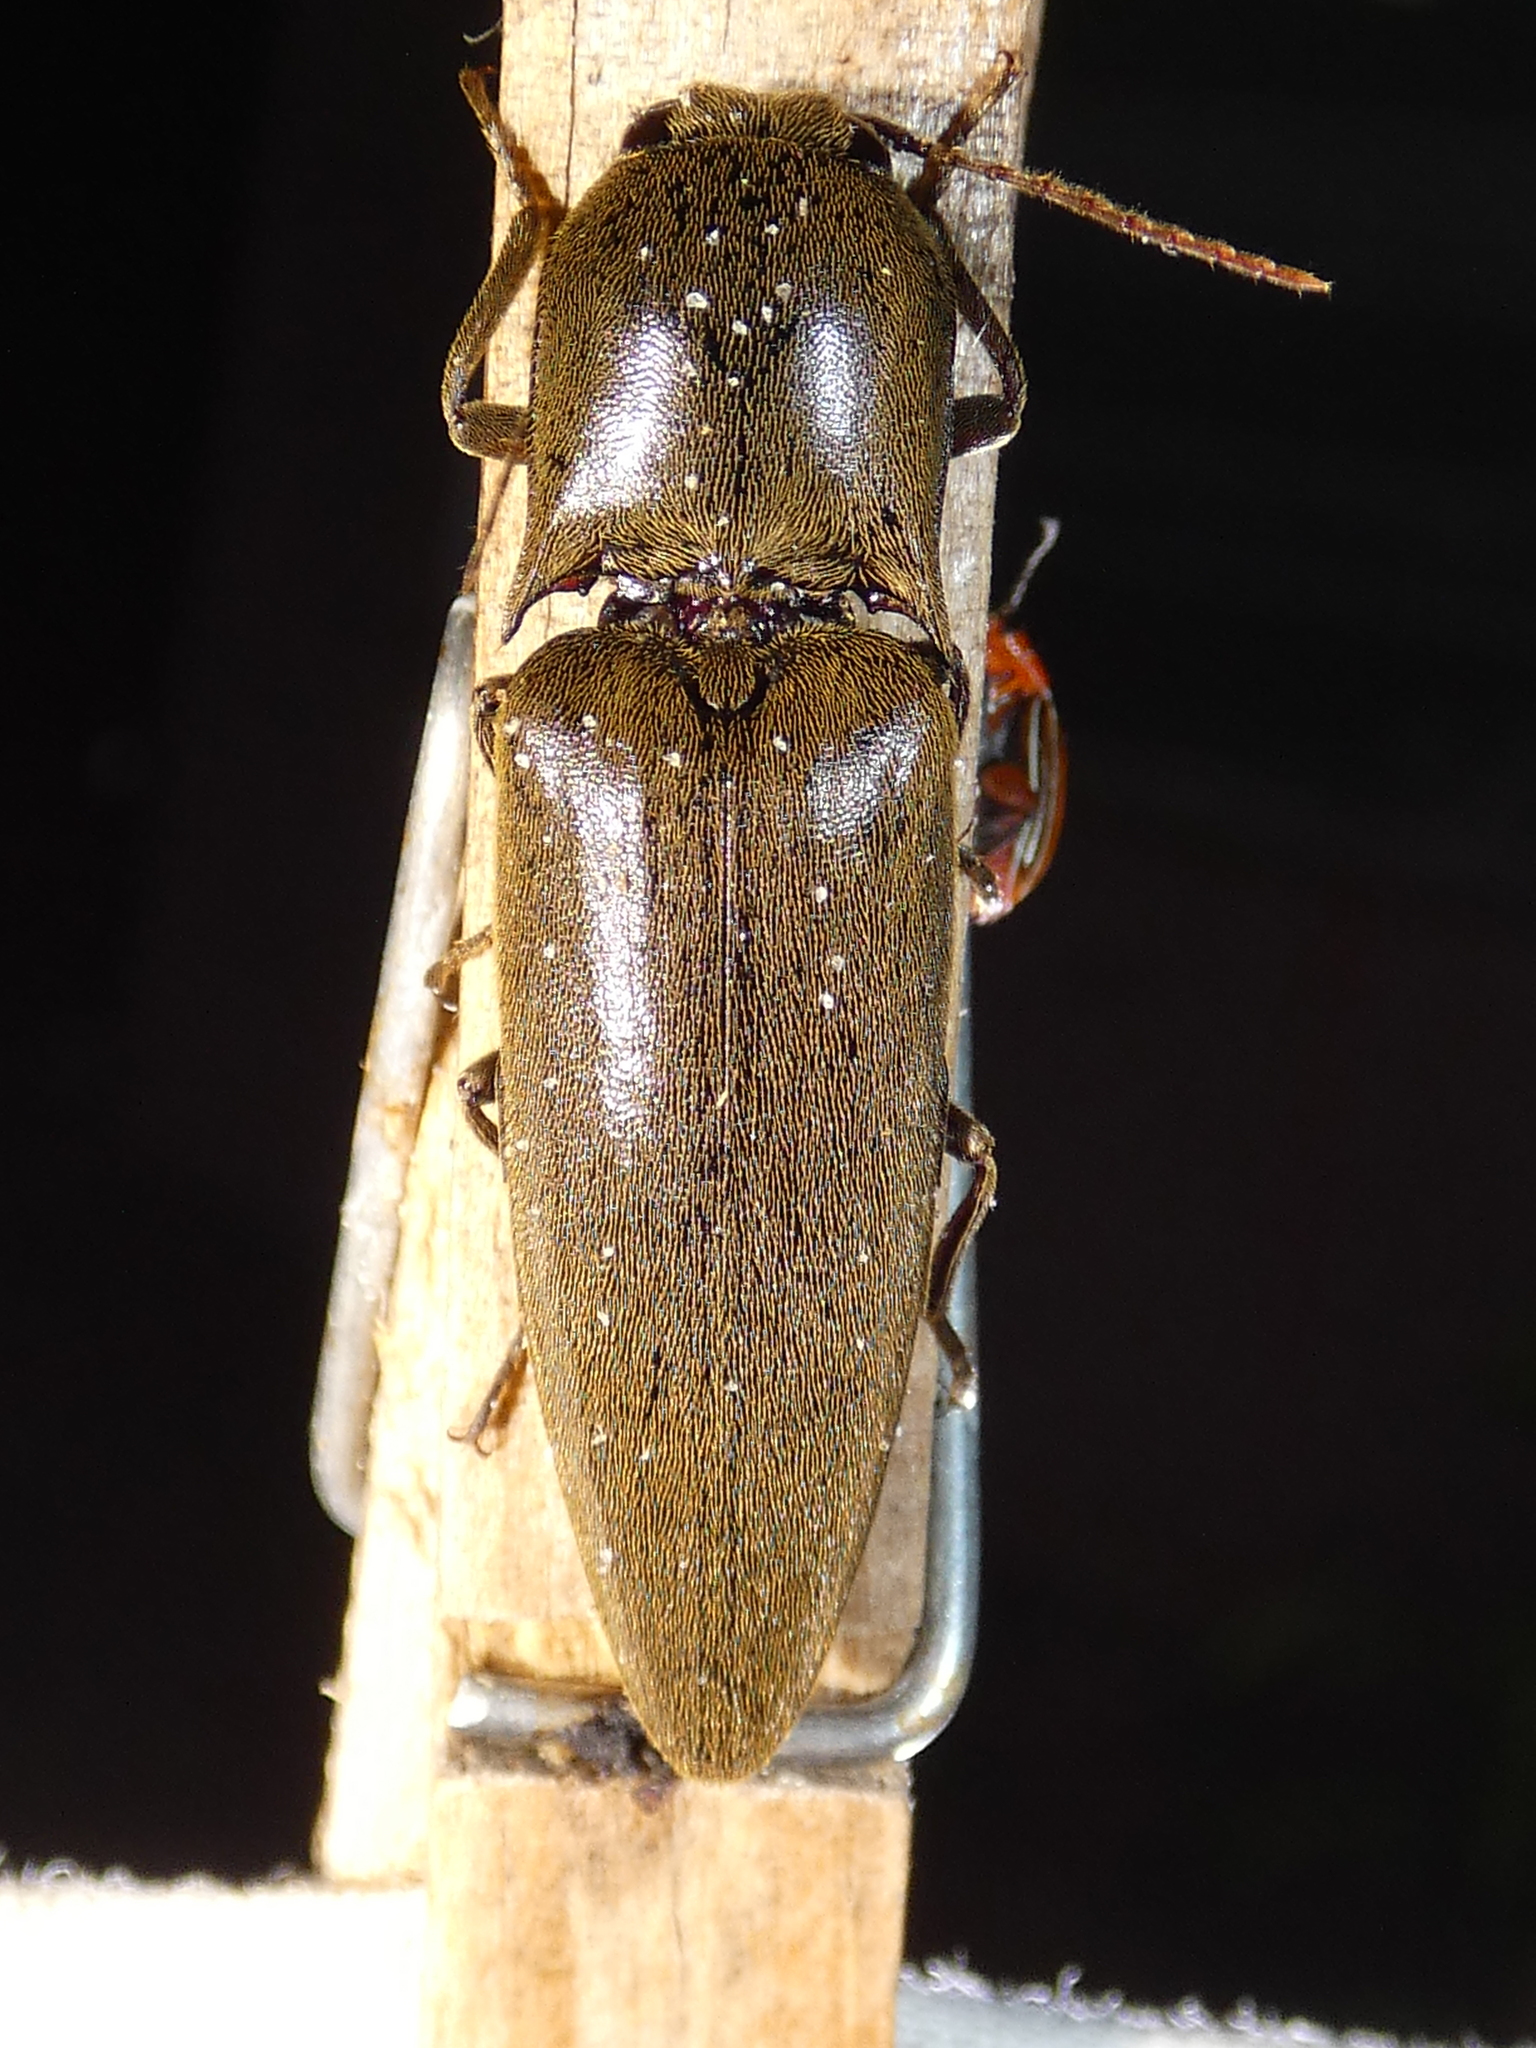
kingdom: Animalia
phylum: Arthropoda
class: Insecta
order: Coleoptera
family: Elateridae
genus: Orthostethus
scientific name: Orthostethus infuscatus
